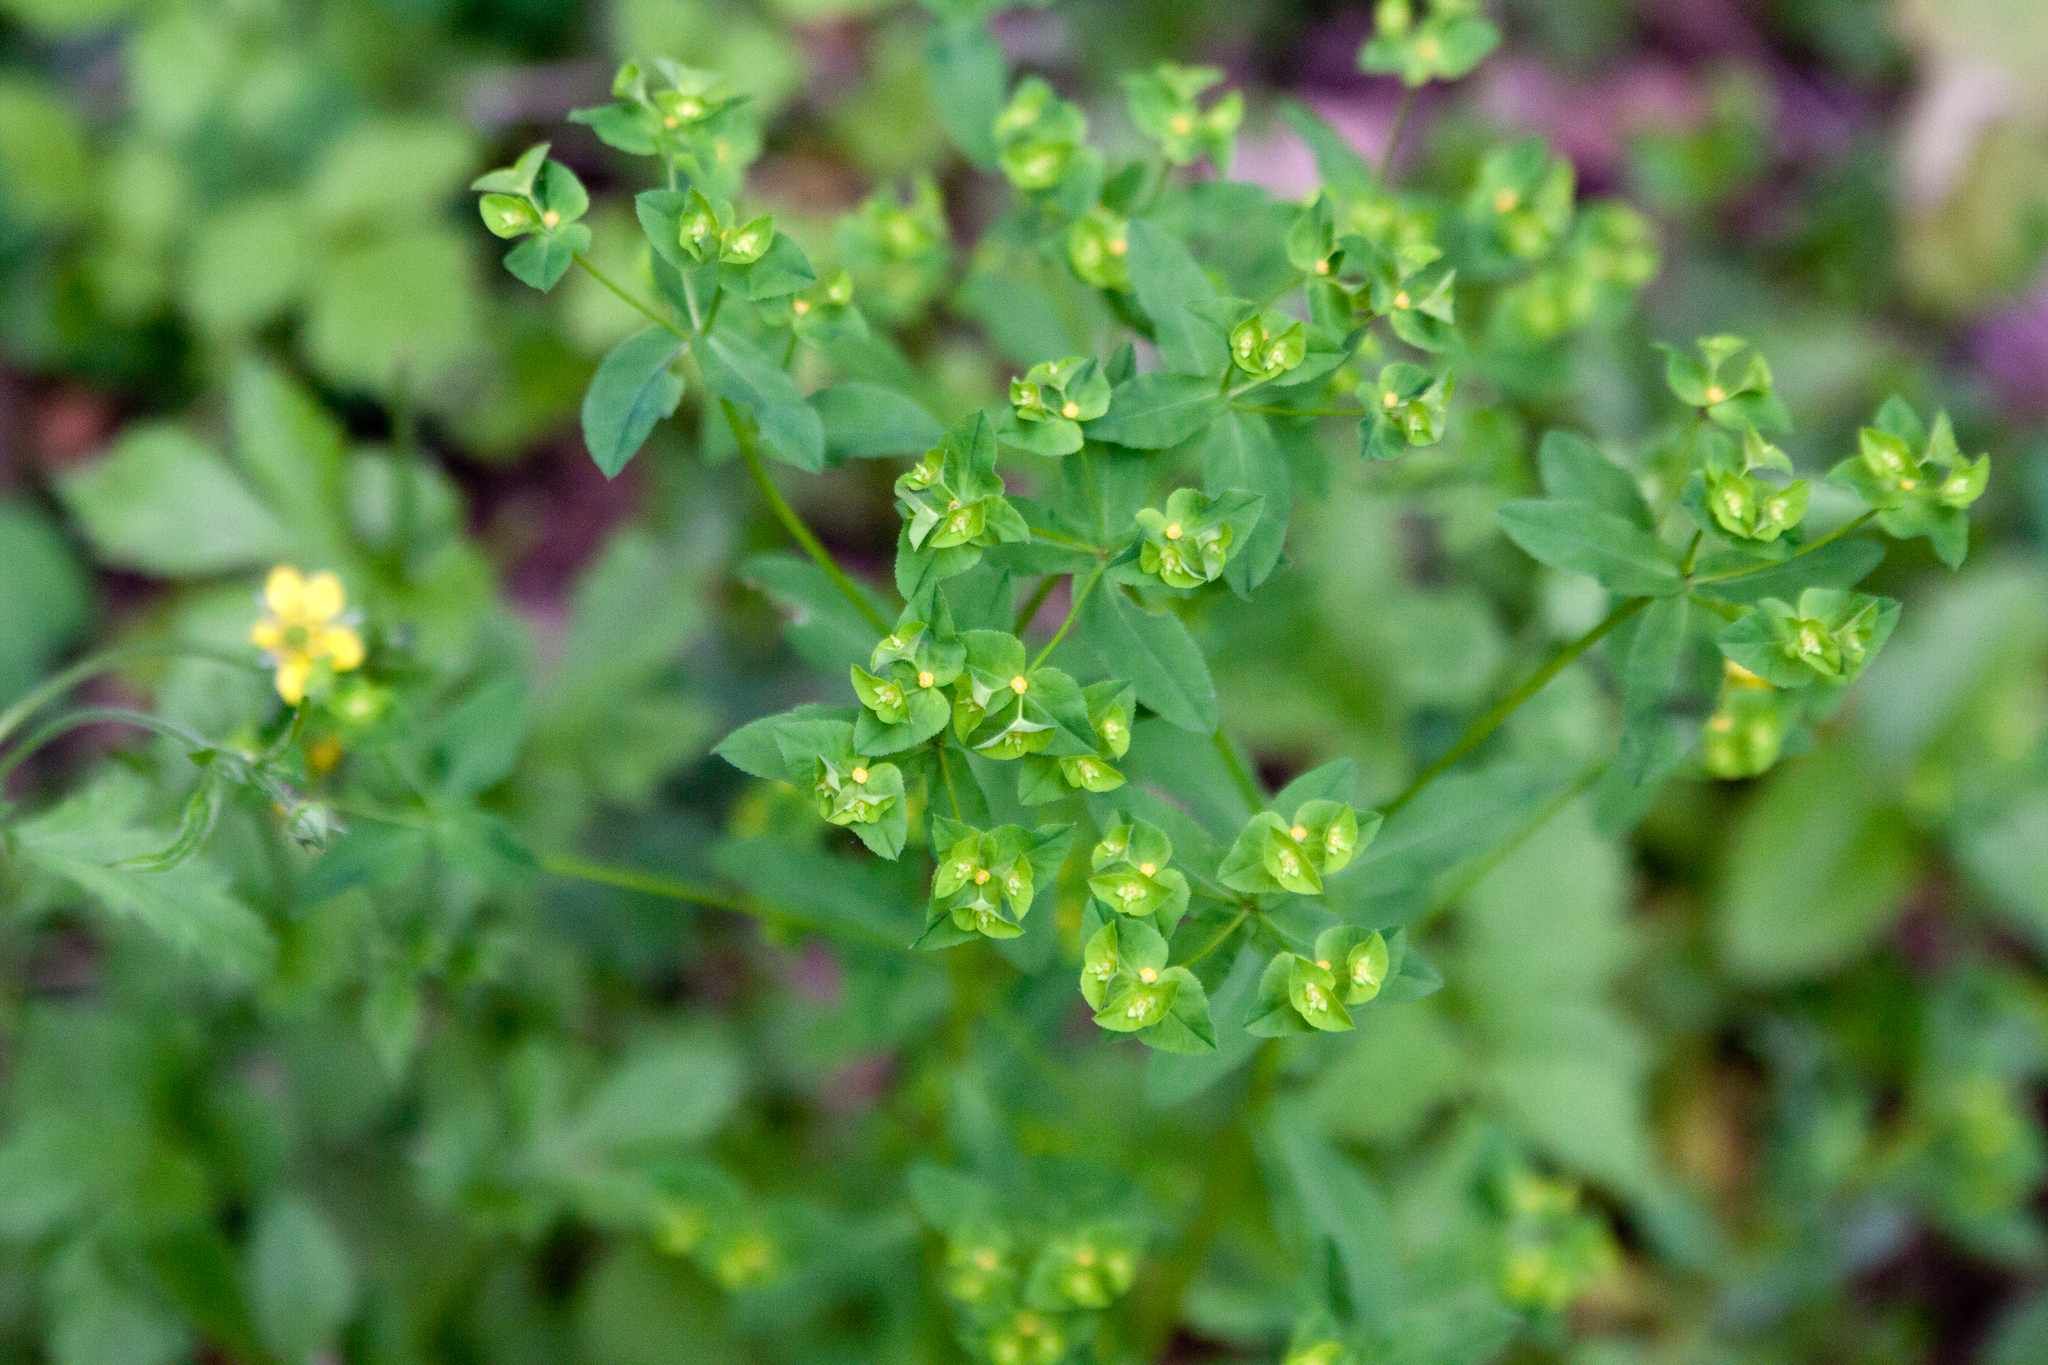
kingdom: Plantae
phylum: Tracheophyta
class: Magnoliopsida
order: Malpighiales
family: Euphorbiaceae
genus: Euphorbia
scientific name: Euphorbia stricta
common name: Upright spurge
